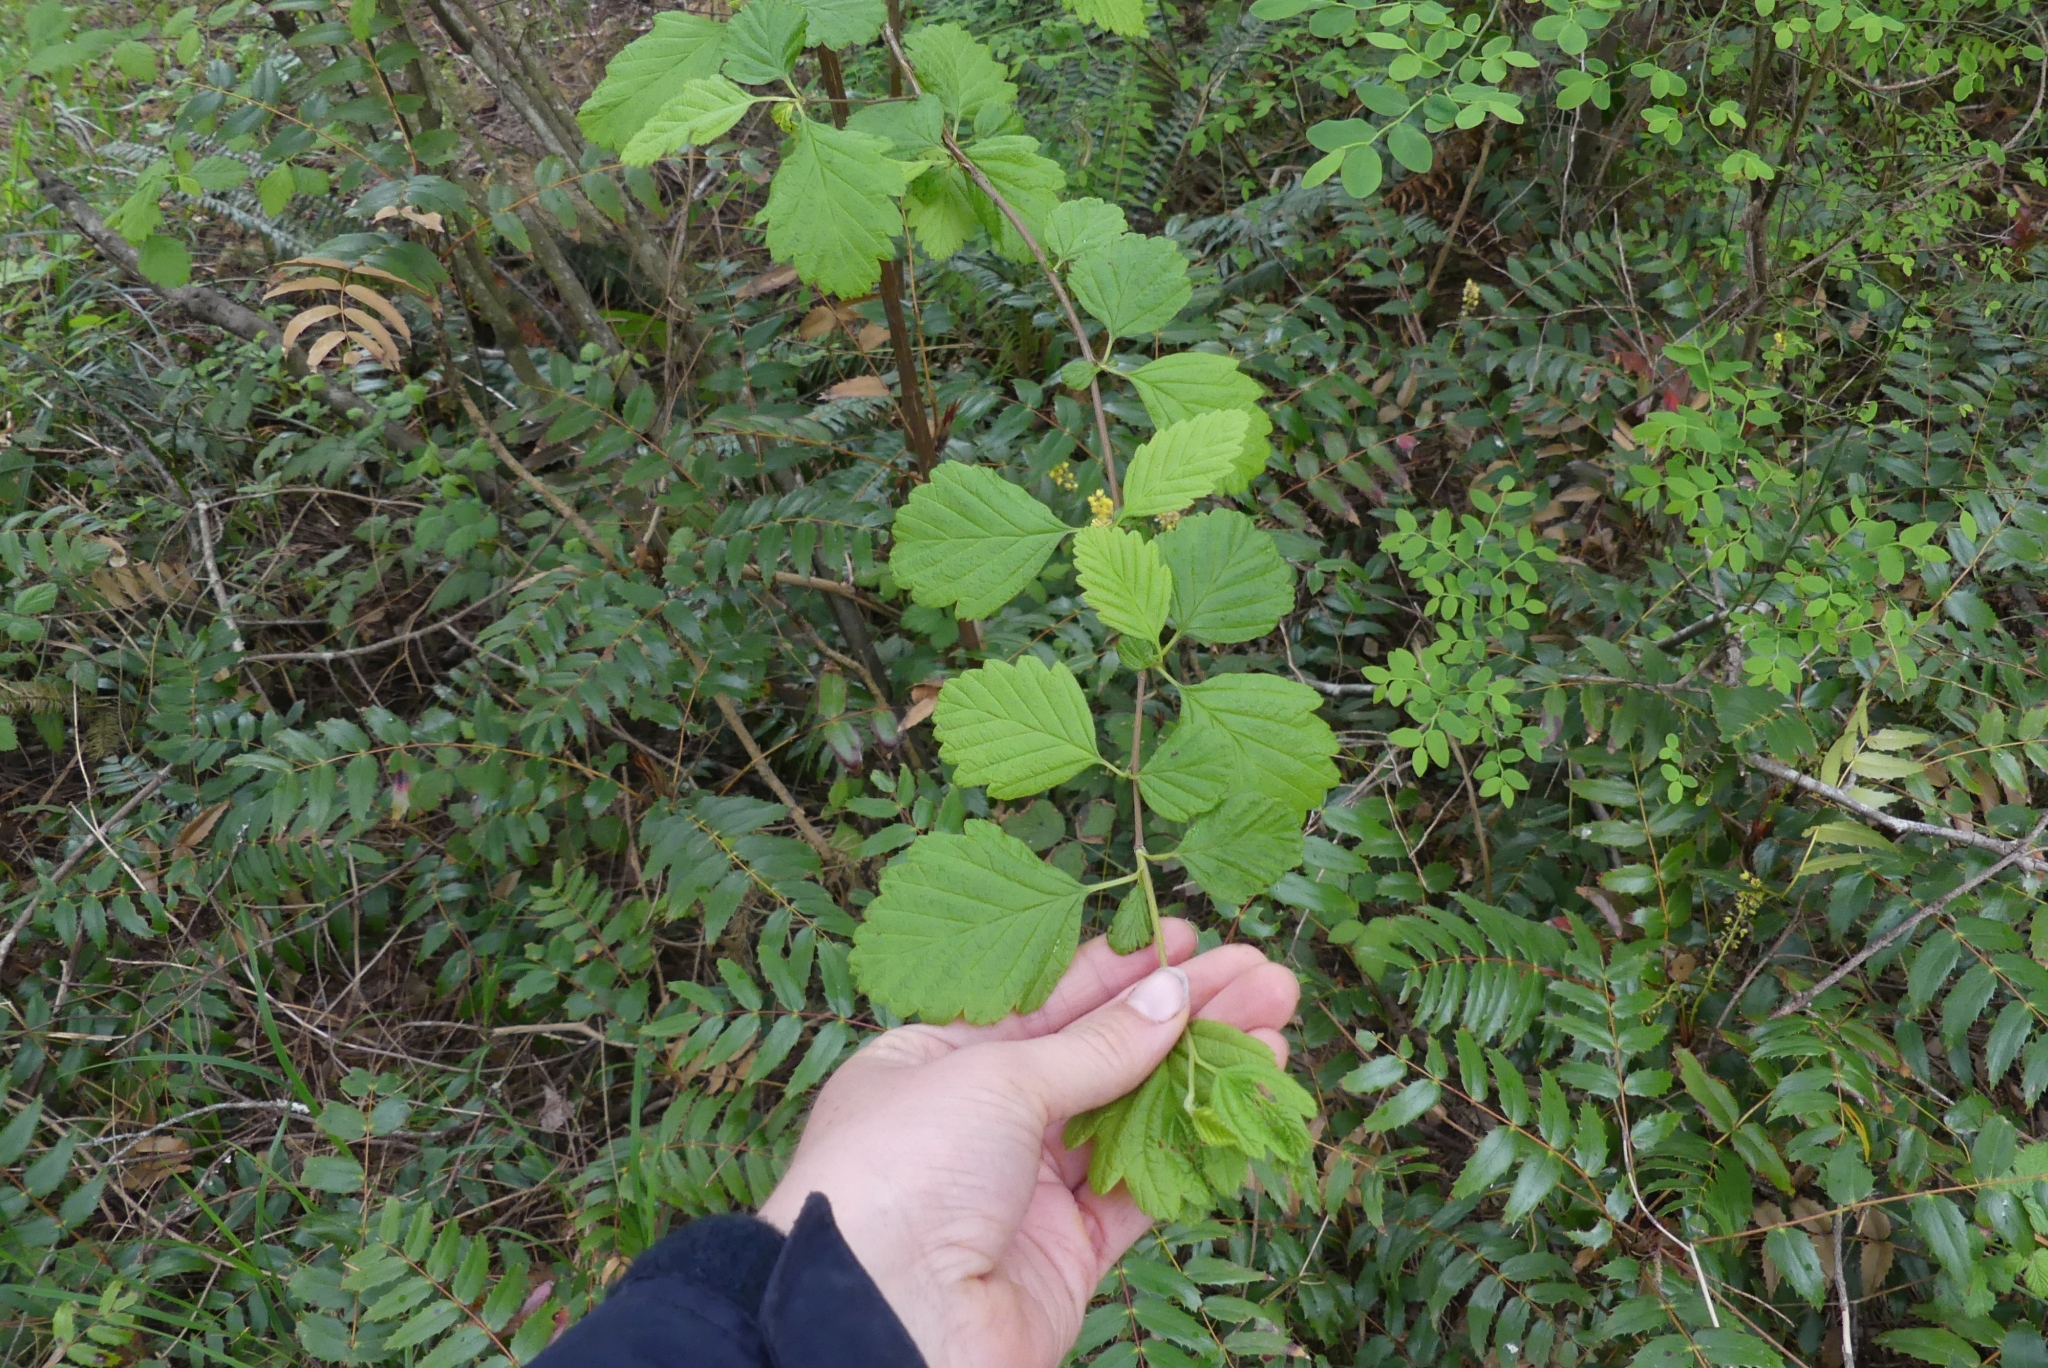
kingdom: Plantae
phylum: Tracheophyta
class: Magnoliopsida
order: Rosales
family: Rosaceae
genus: Holodiscus
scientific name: Holodiscus discolor
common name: Oceanspray
